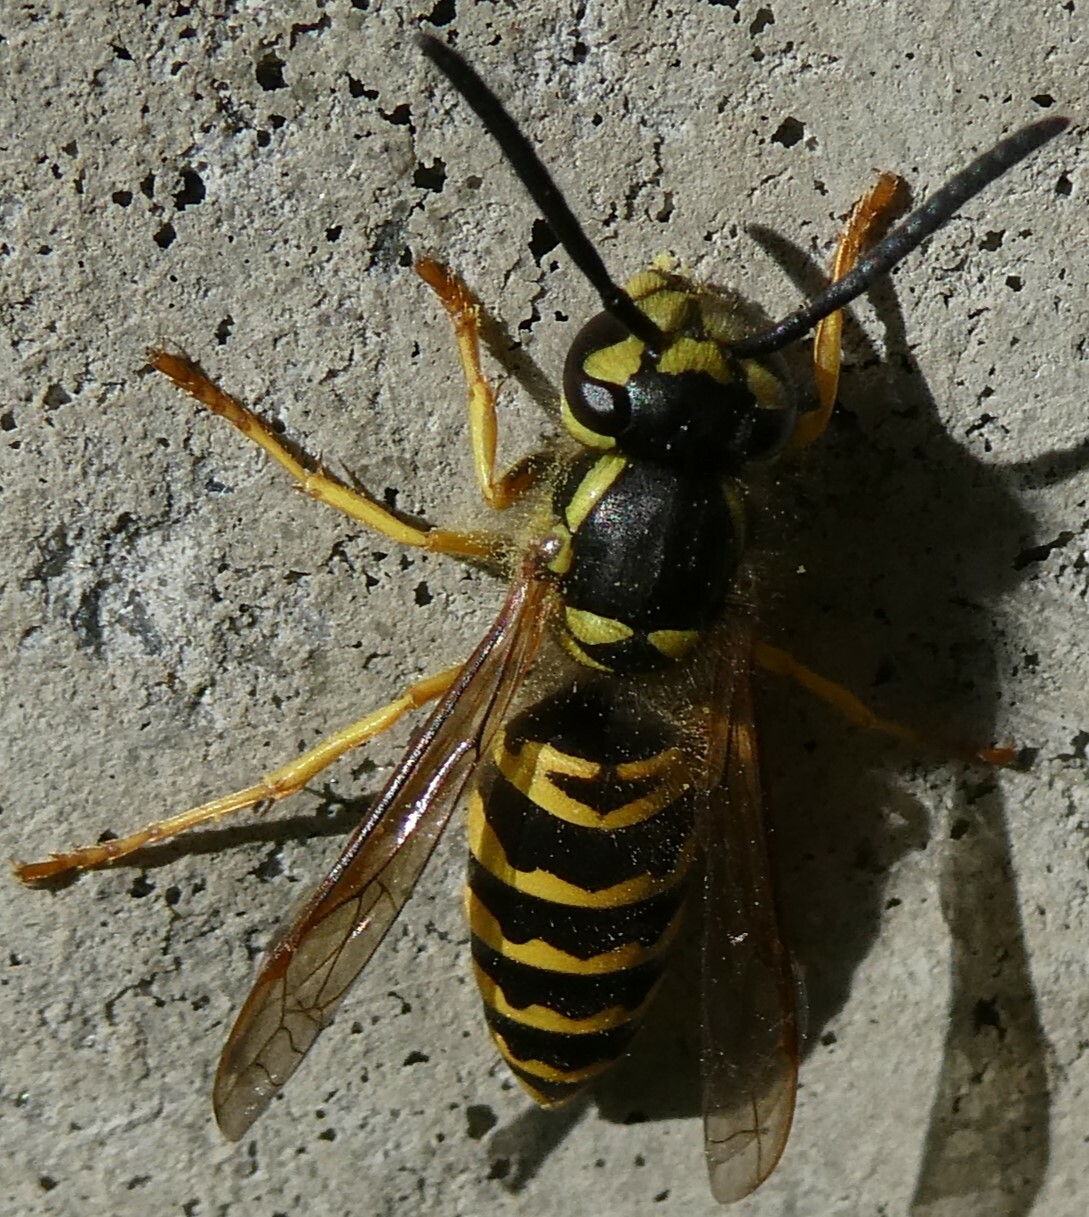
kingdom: Animalia
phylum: Arthropoda
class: Insecta
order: Hymenoptera
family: Vespidae
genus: Vespula
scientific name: Vespula maculifrons
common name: Eastern yellowjacket
